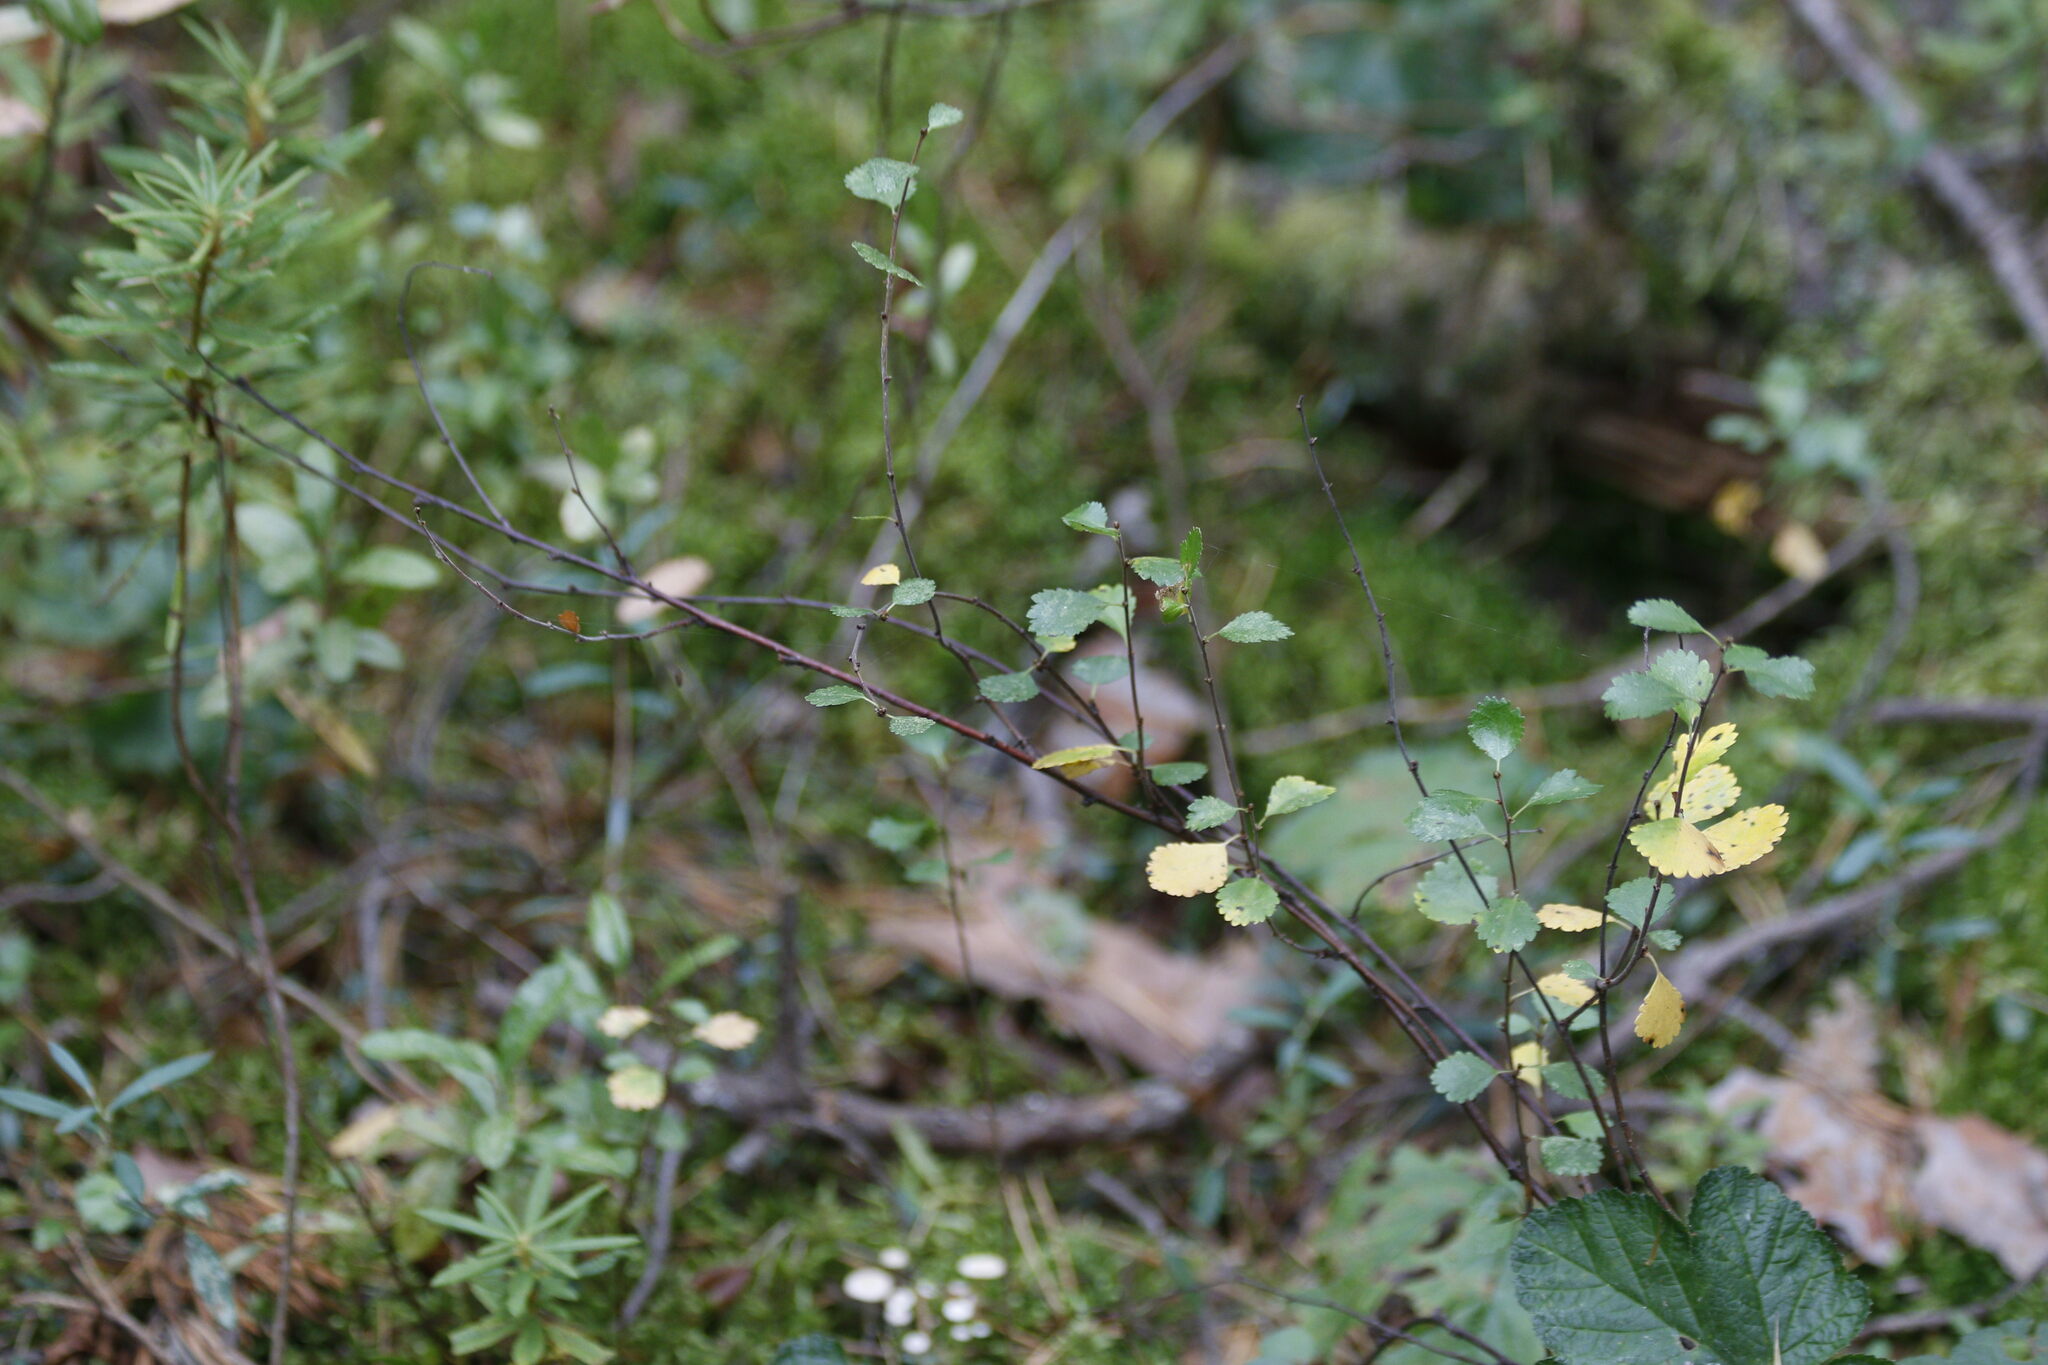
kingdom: Plantae
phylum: Tracheophyta
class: Magnoliopsida
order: Fagales
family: Betulaceae
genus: Betula
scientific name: Betula nana
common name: Arctic dwarf birch
